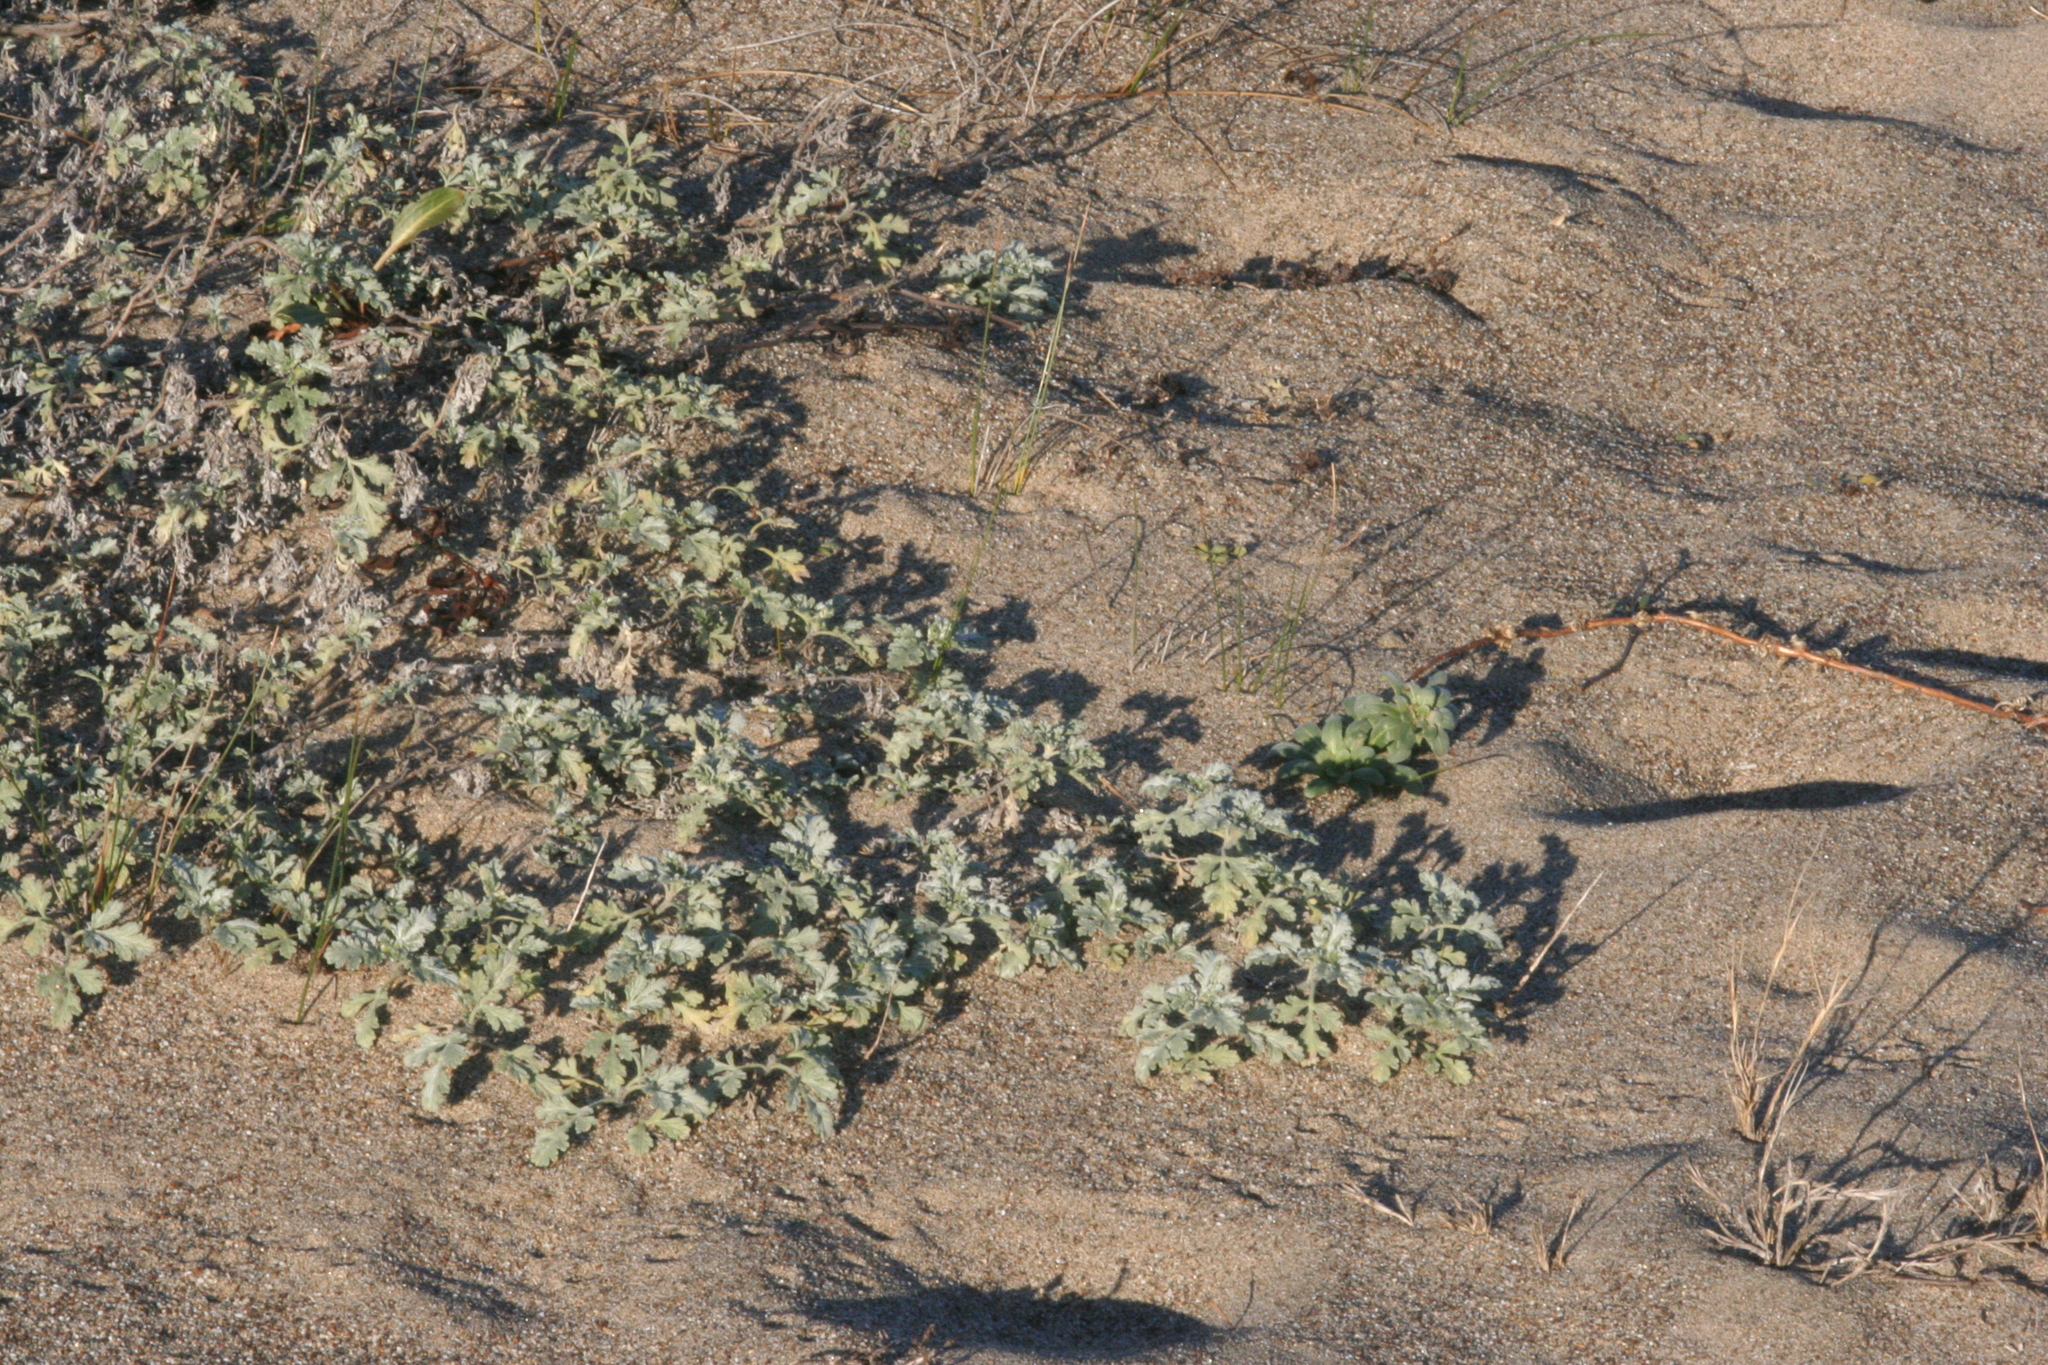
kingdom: Plantae
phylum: Tracheophyta
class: Magnoliopsida
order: Asterales
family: Asteraceae
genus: Ambrosia
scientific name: Ambrosia chamissonis
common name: Beachbur
